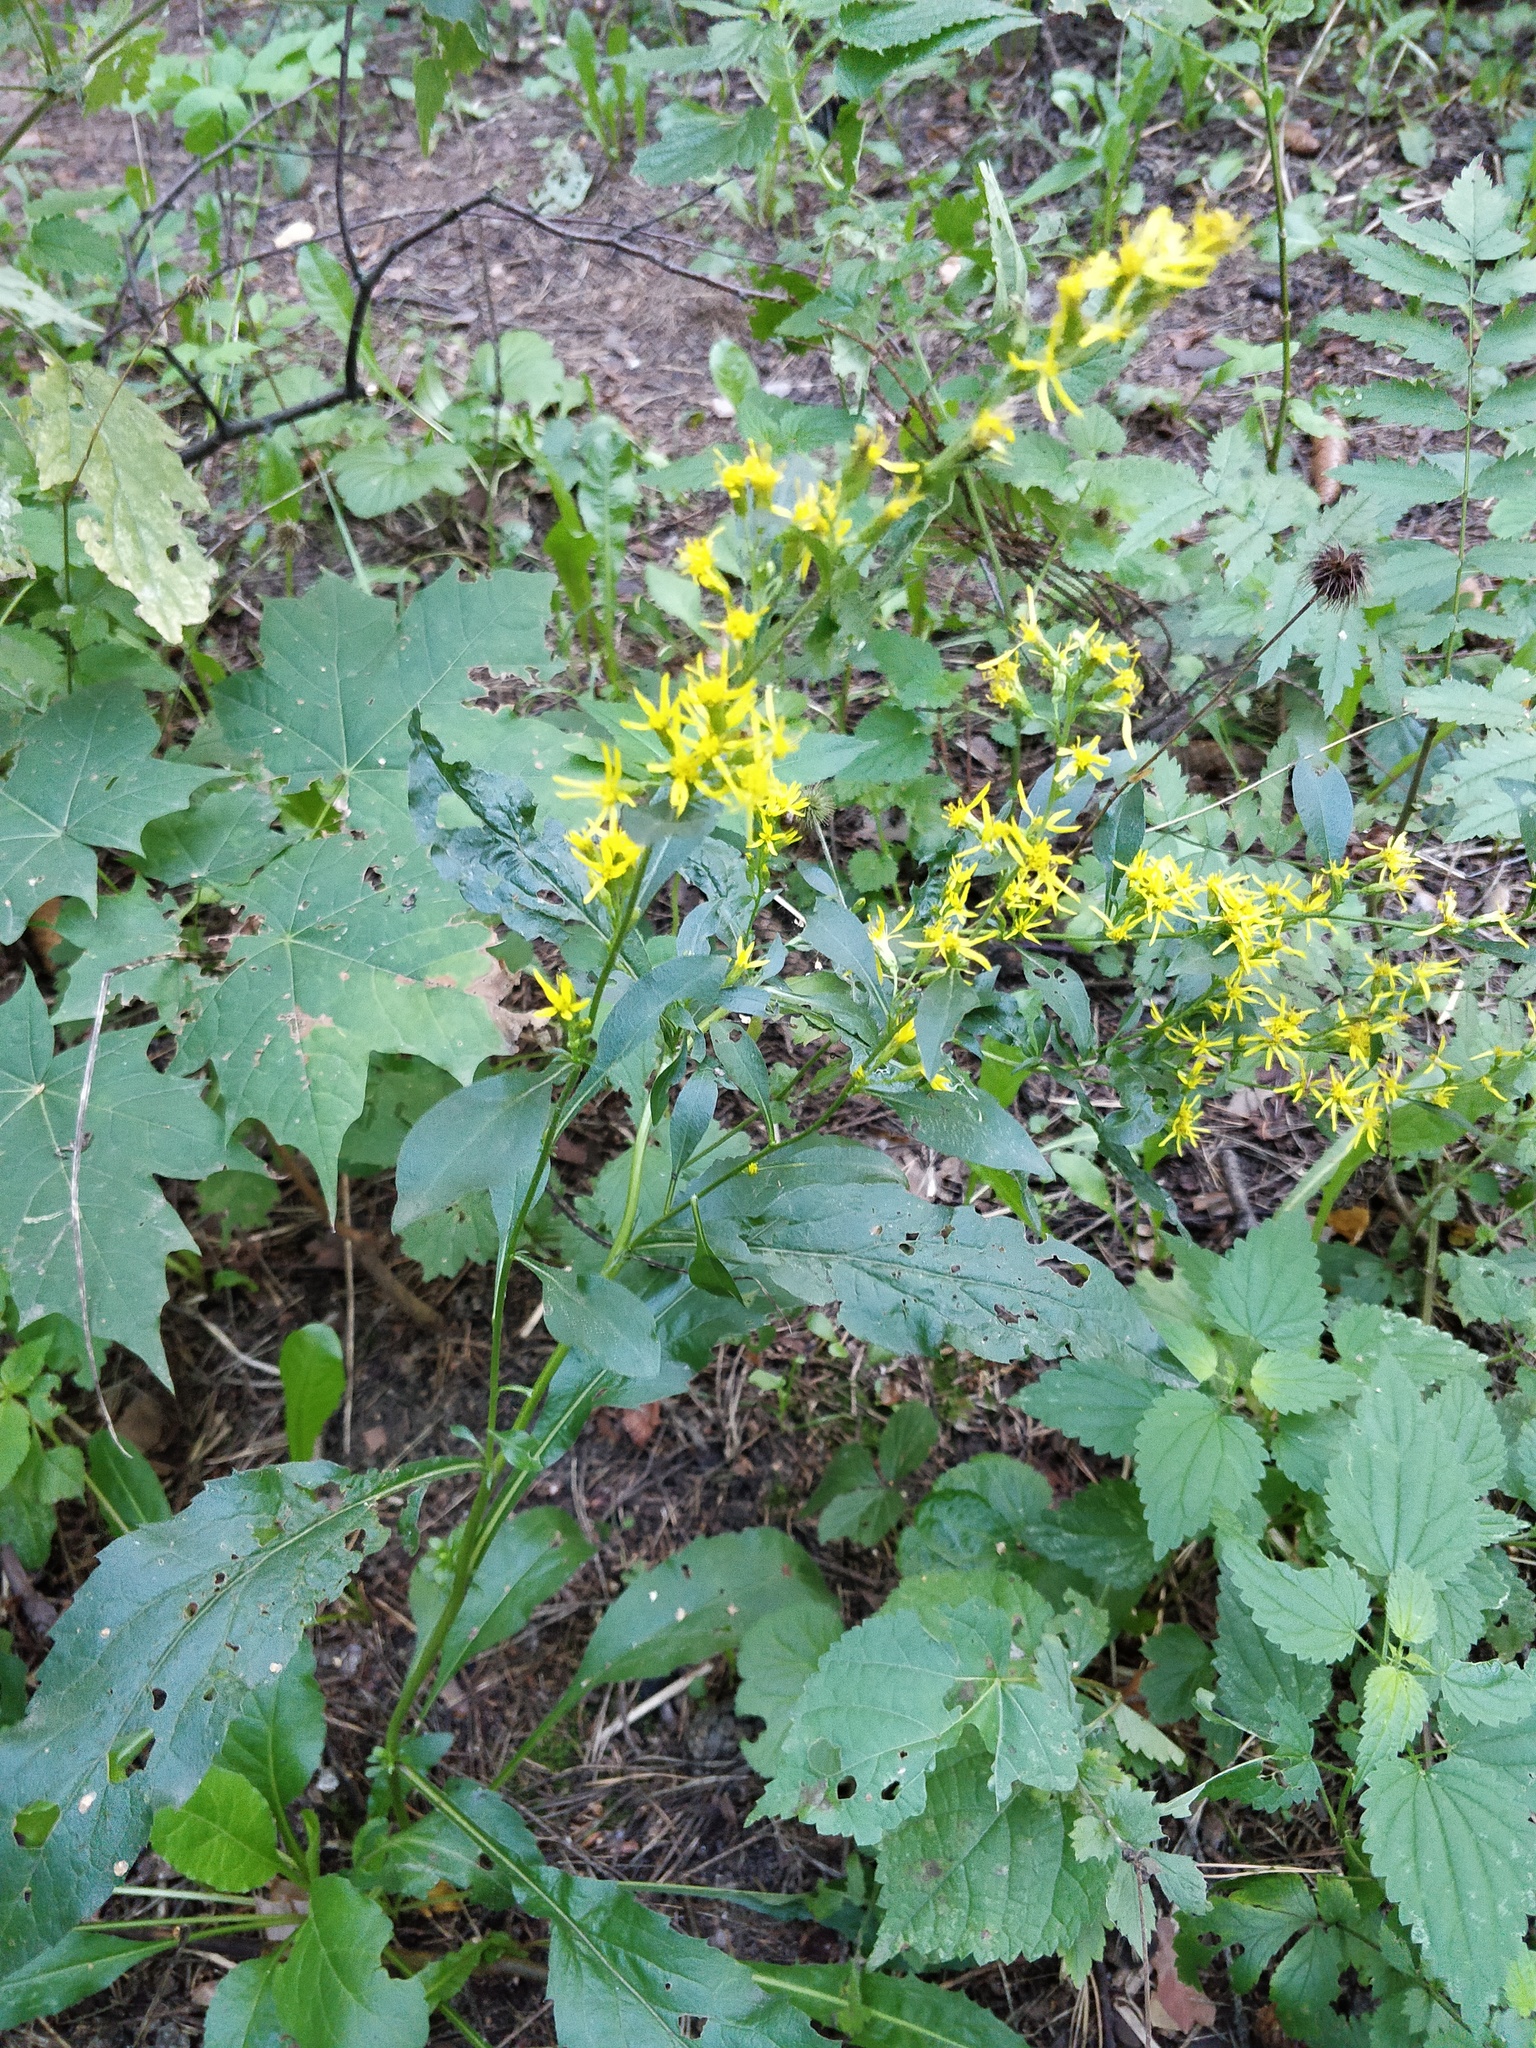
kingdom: Plantae
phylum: Tracheophyta
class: Magnoliopsida
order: Asterales
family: Asteraceae
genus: Solidago
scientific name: Solidago virgaurea
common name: Goldenrod
